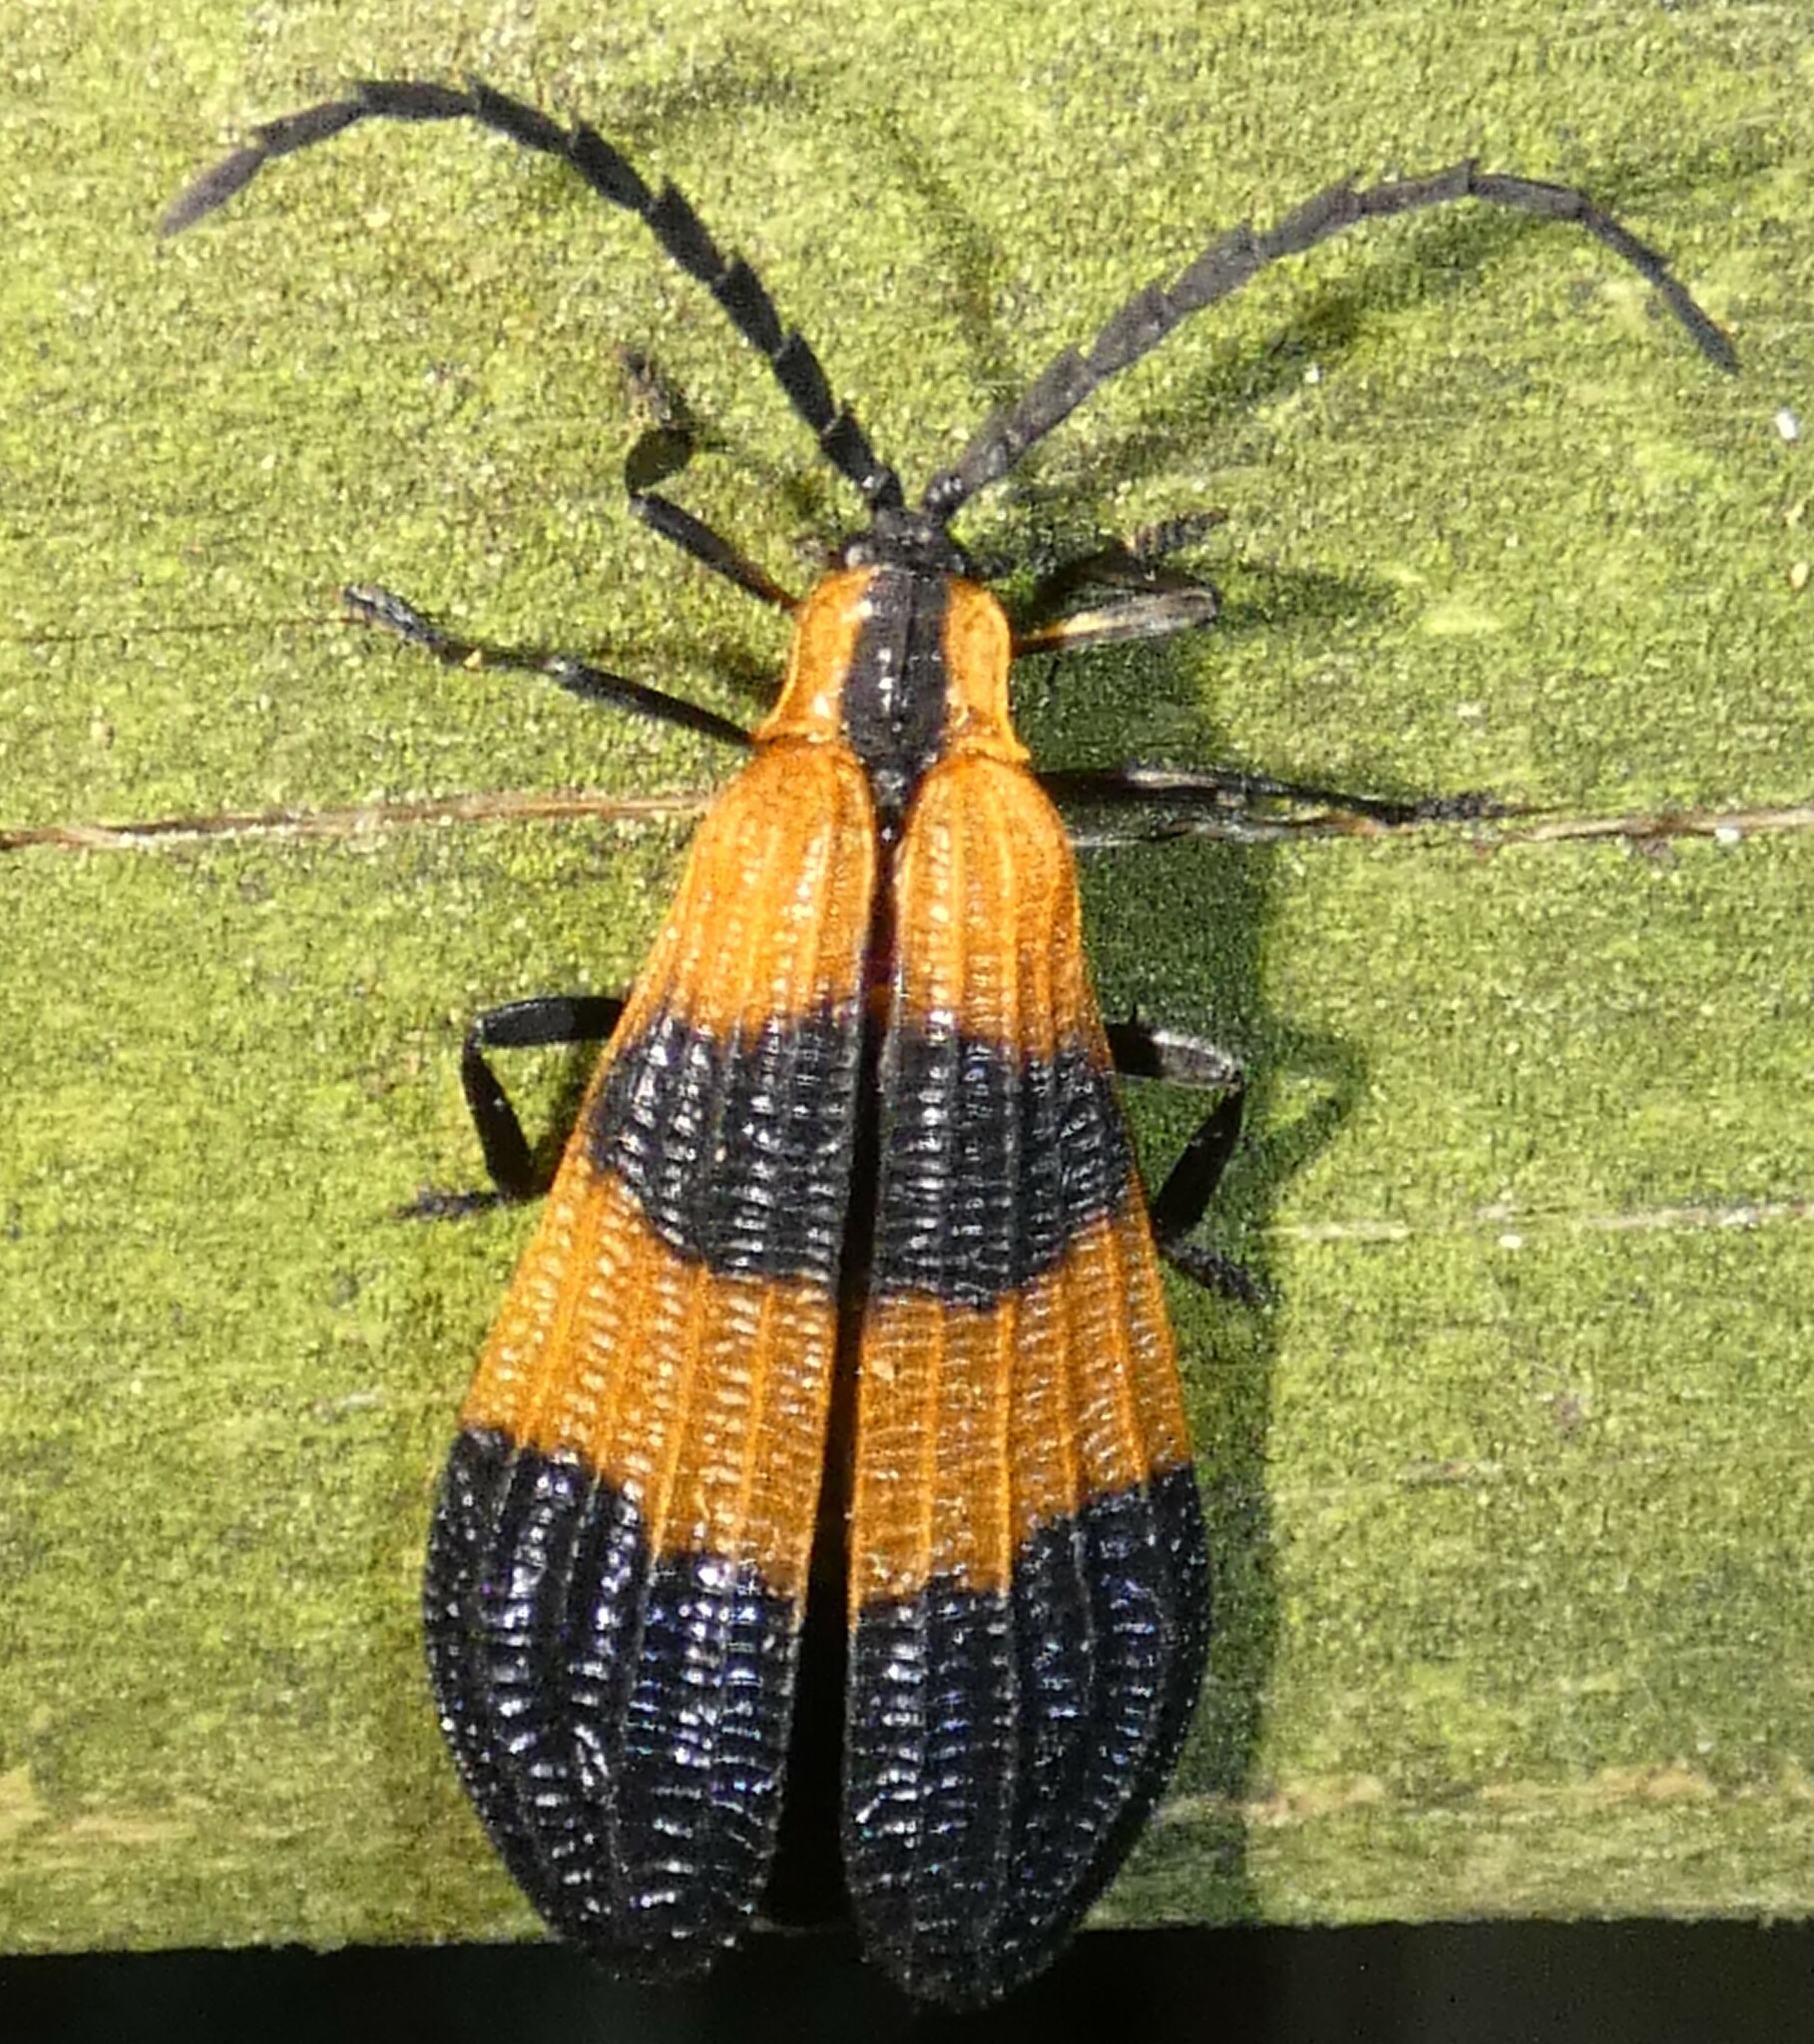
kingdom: Animalia
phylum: Arthropoda
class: Insecta
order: Coleoptera
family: Lycidae
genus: Calopteron
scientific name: Calopteron terminale
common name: End band net-winged beetle
